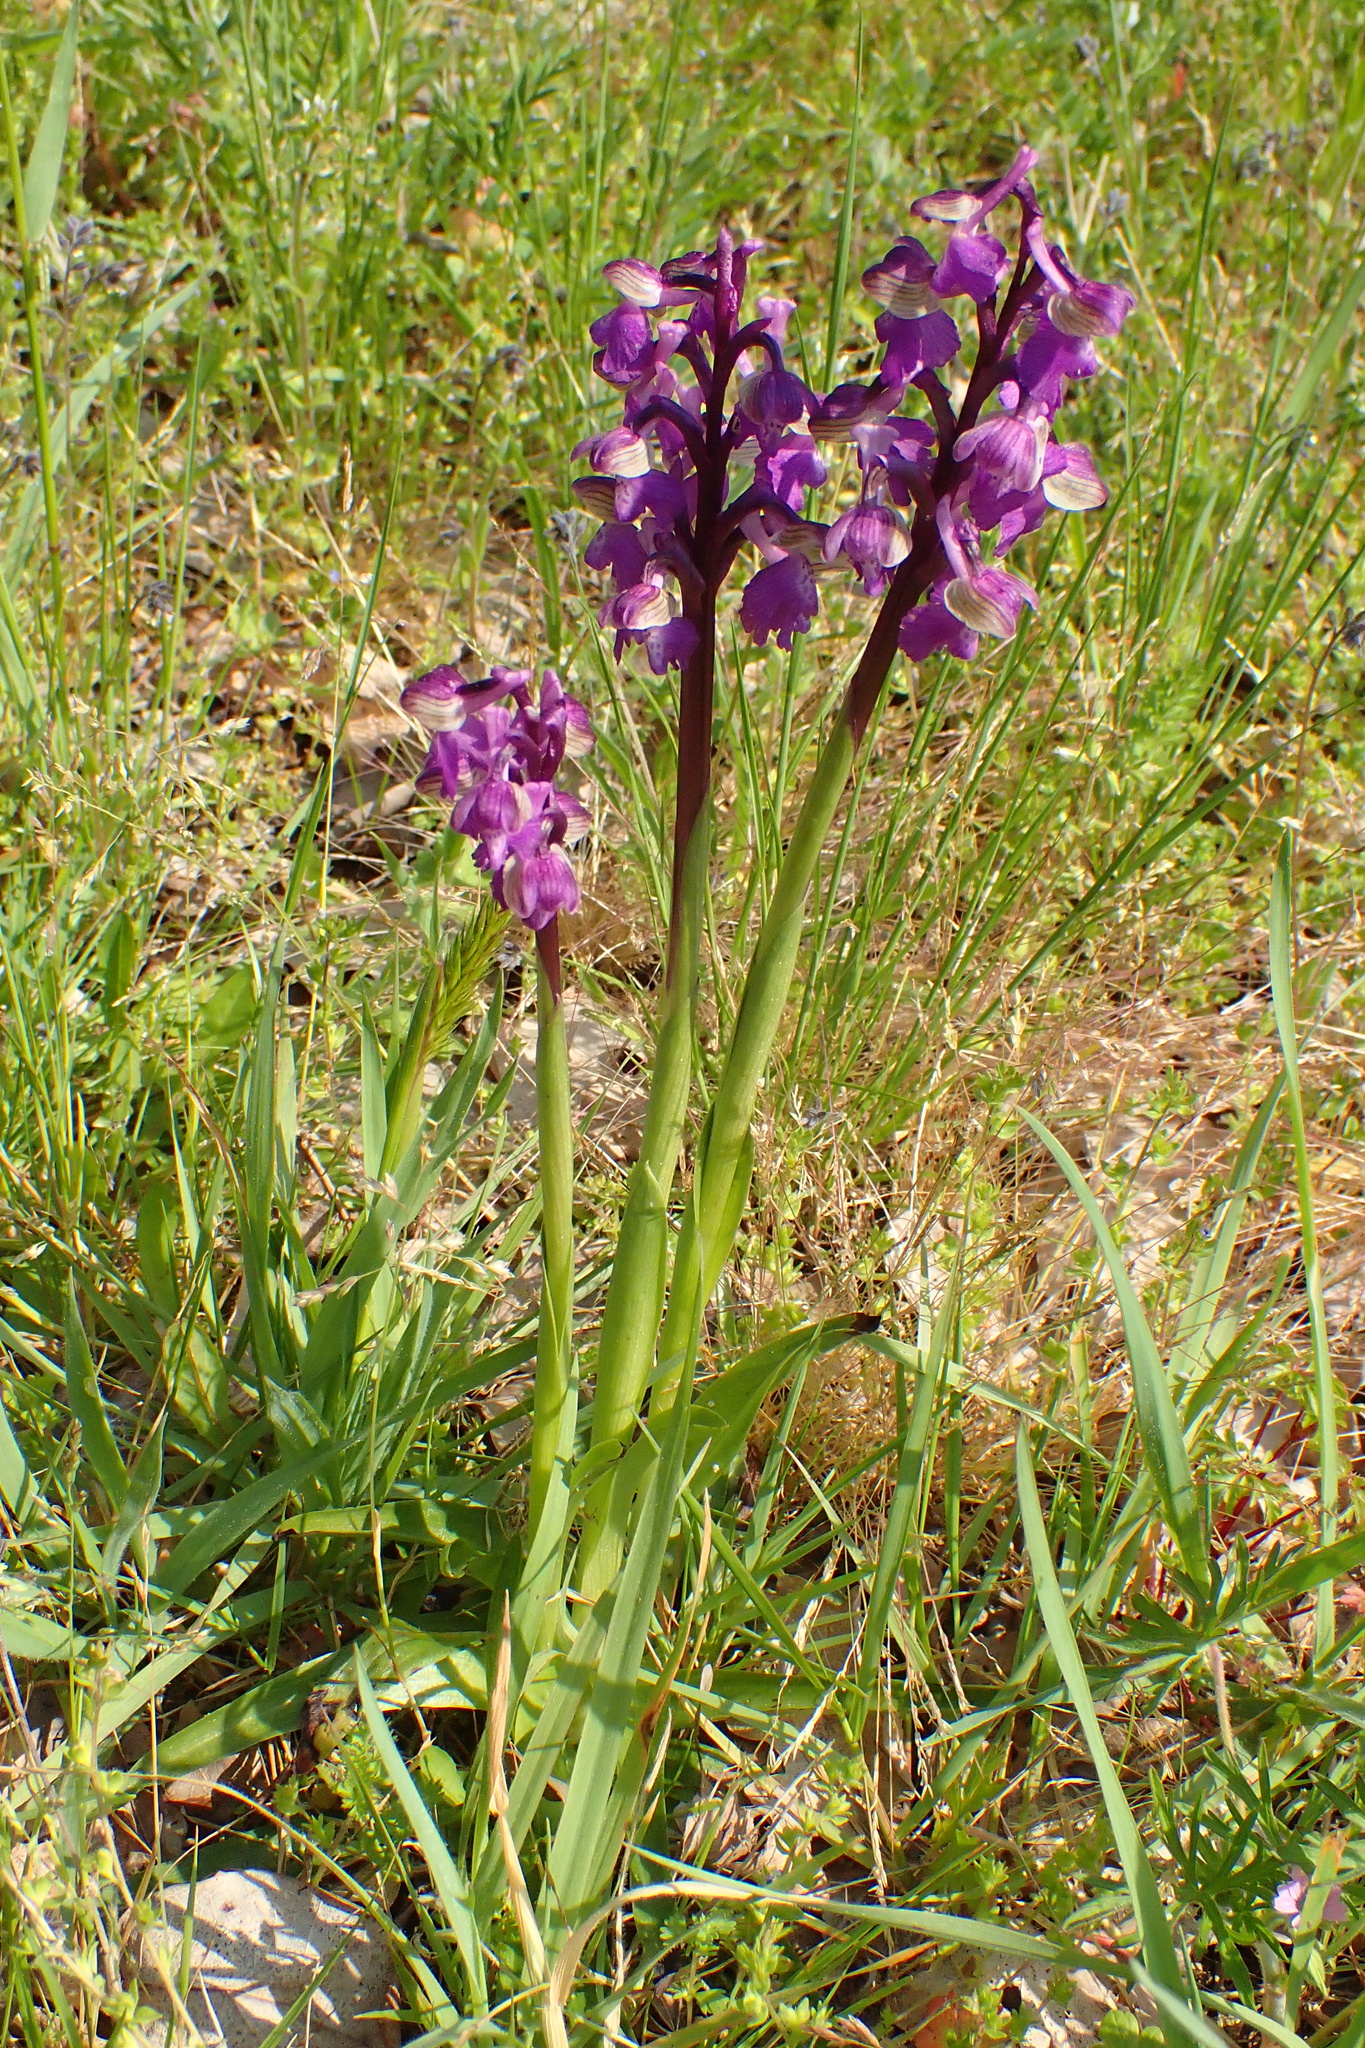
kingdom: Plantae
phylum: Tracheophyta
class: Liliopsida
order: Asparagales
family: Orchidaceae
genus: Anacamptis
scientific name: Anacamptis morio
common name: Green-winged orchid
